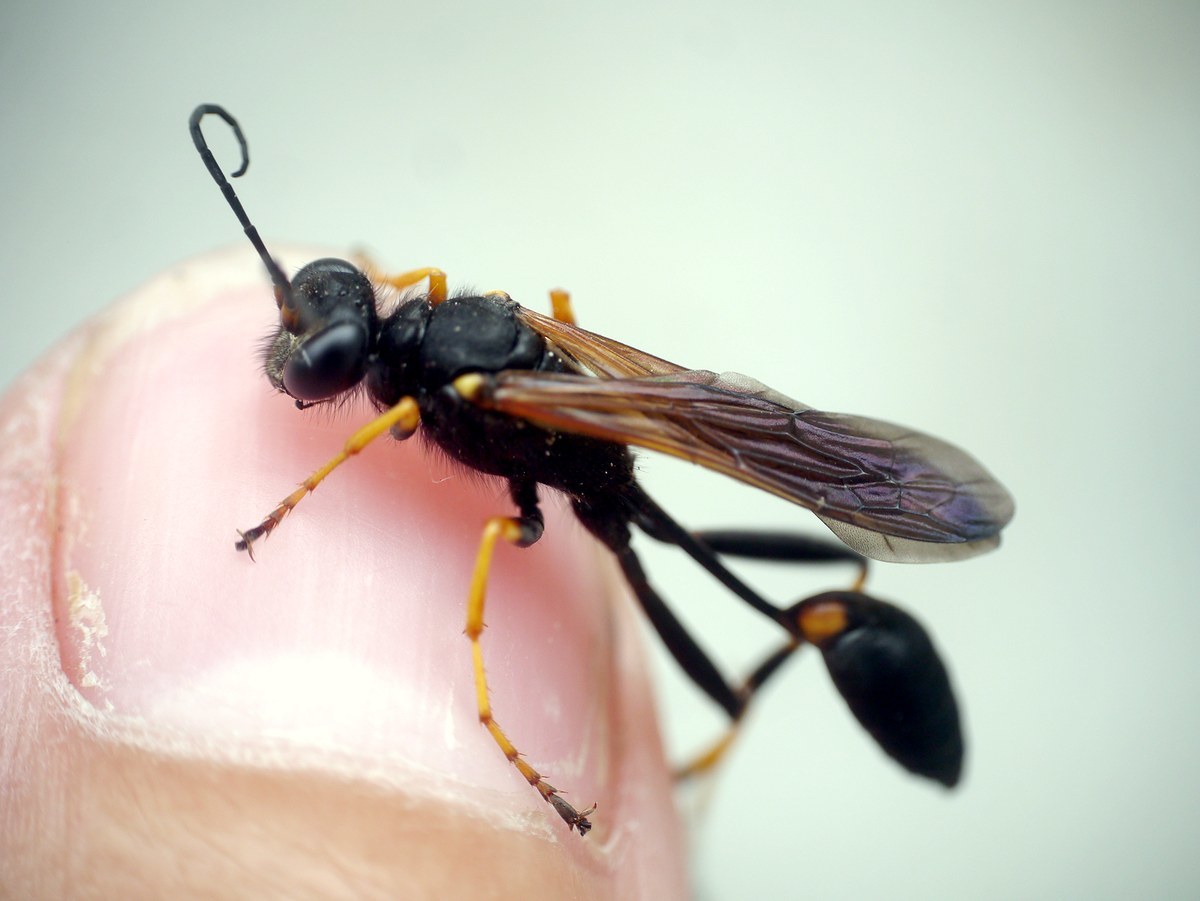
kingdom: Animalia
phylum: Arthropoda
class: Insecta
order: Hymenoptera
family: Sphecidae
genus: Sceliphron
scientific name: Sceliphron caementarium
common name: Mud dauber
